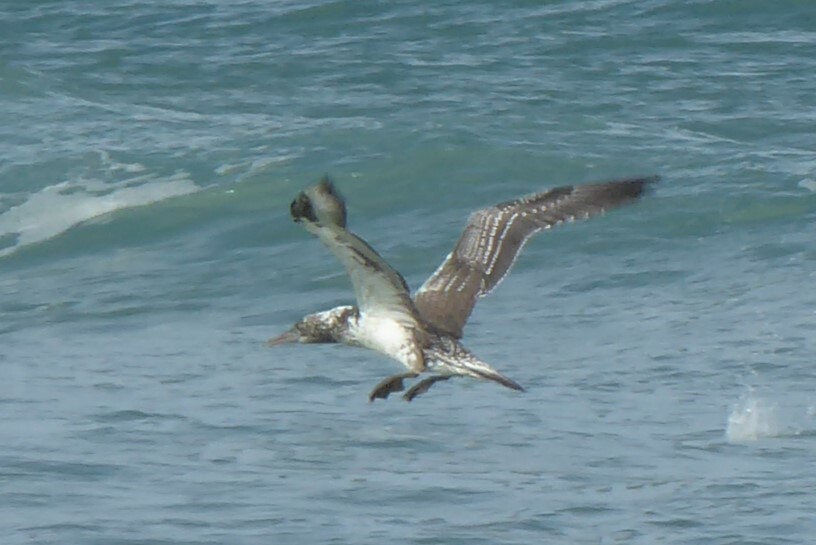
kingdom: Animalia
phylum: Chordata
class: Aves
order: Suliformes
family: Sulidae
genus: Morus
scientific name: Morus serrator
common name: Australasian gannet
